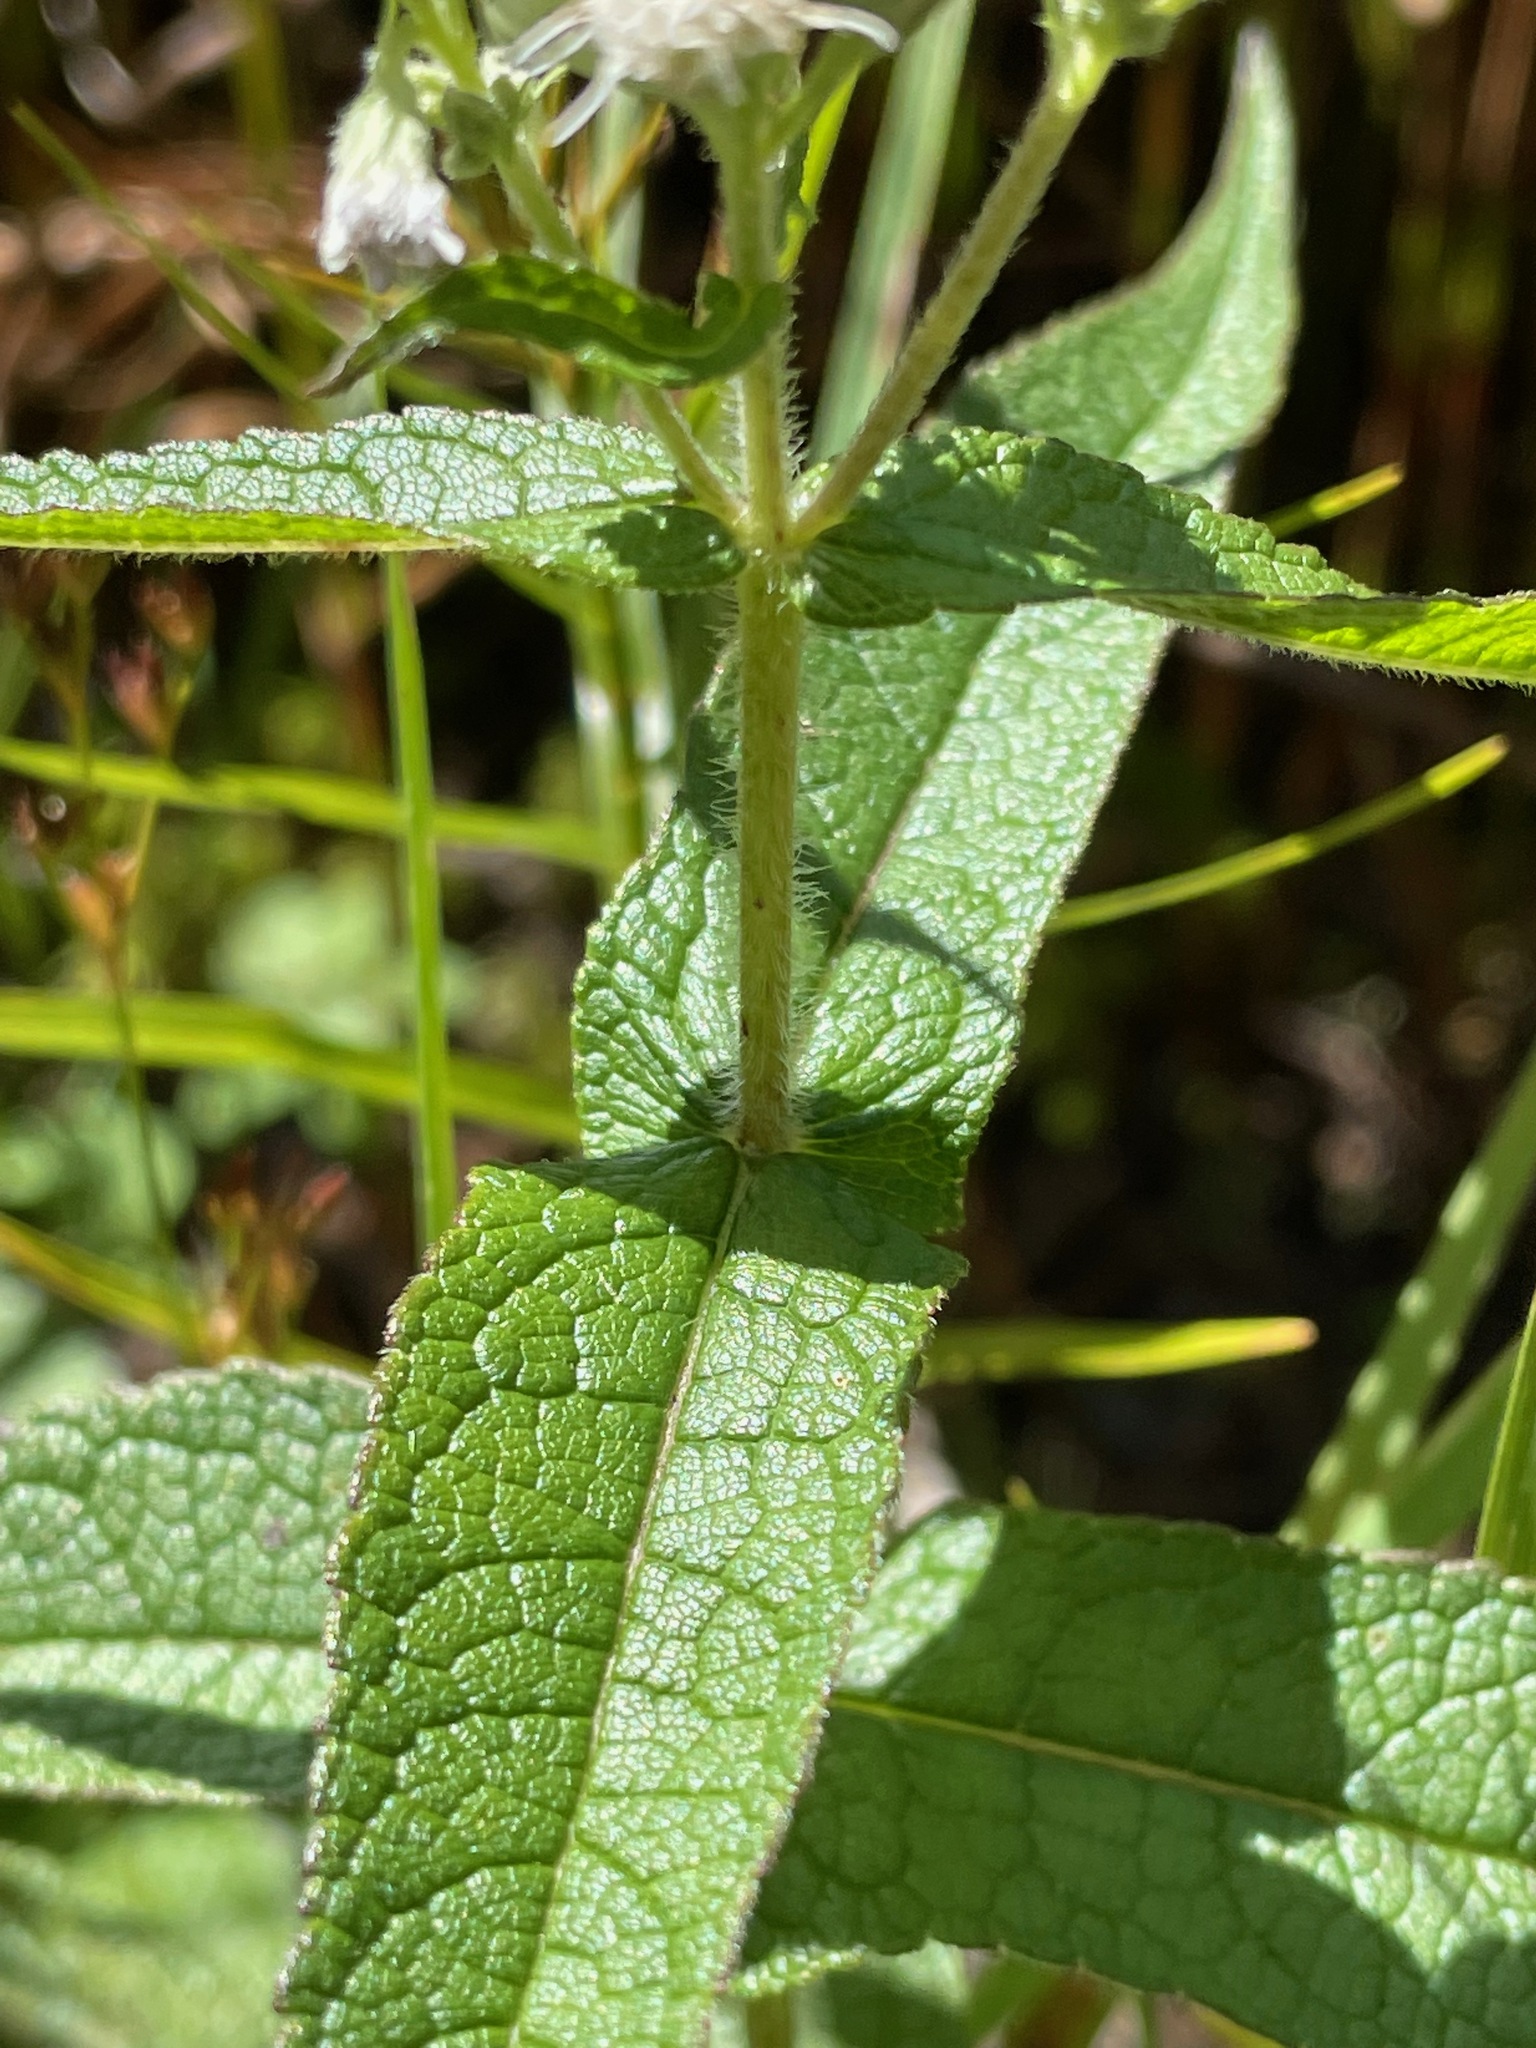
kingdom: Plantae
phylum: Tracheophyta
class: Magnoliopsida
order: Asterales
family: Asteraceae
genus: Eupatorium
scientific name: Eupatorium perfoliatum
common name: Boneset
